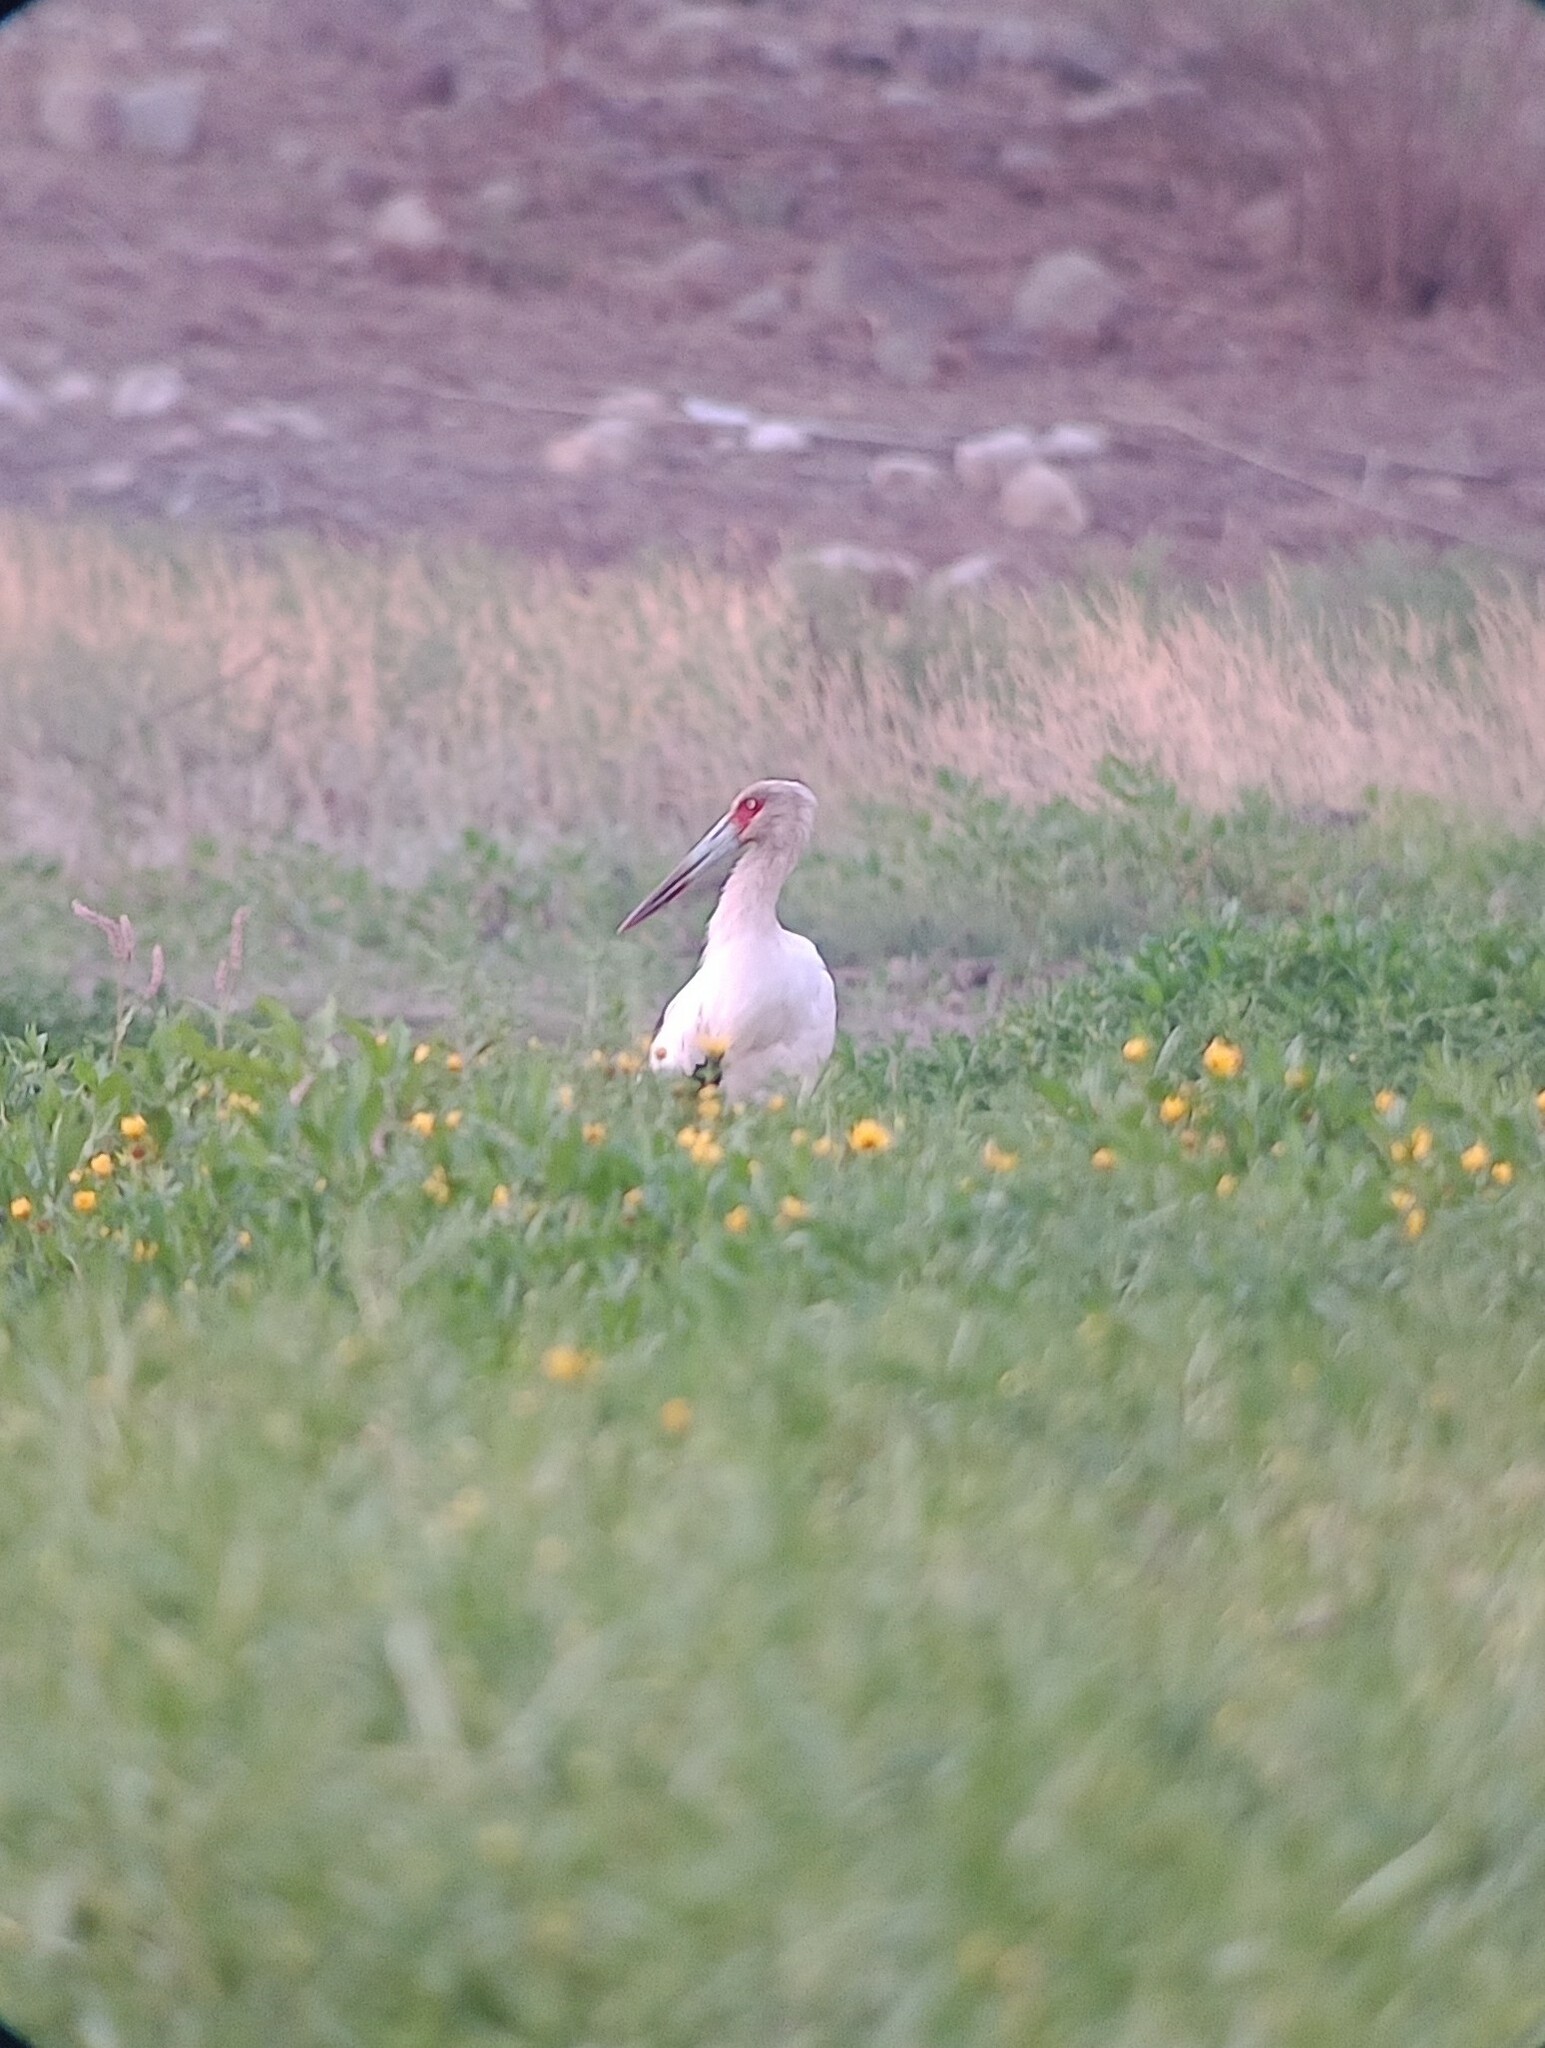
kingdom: Animalia
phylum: Chordata
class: Aves
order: Ciconiiformes
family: Ciconiidae
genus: Ciconia
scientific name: Ciconia maguari
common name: Maguari stork
